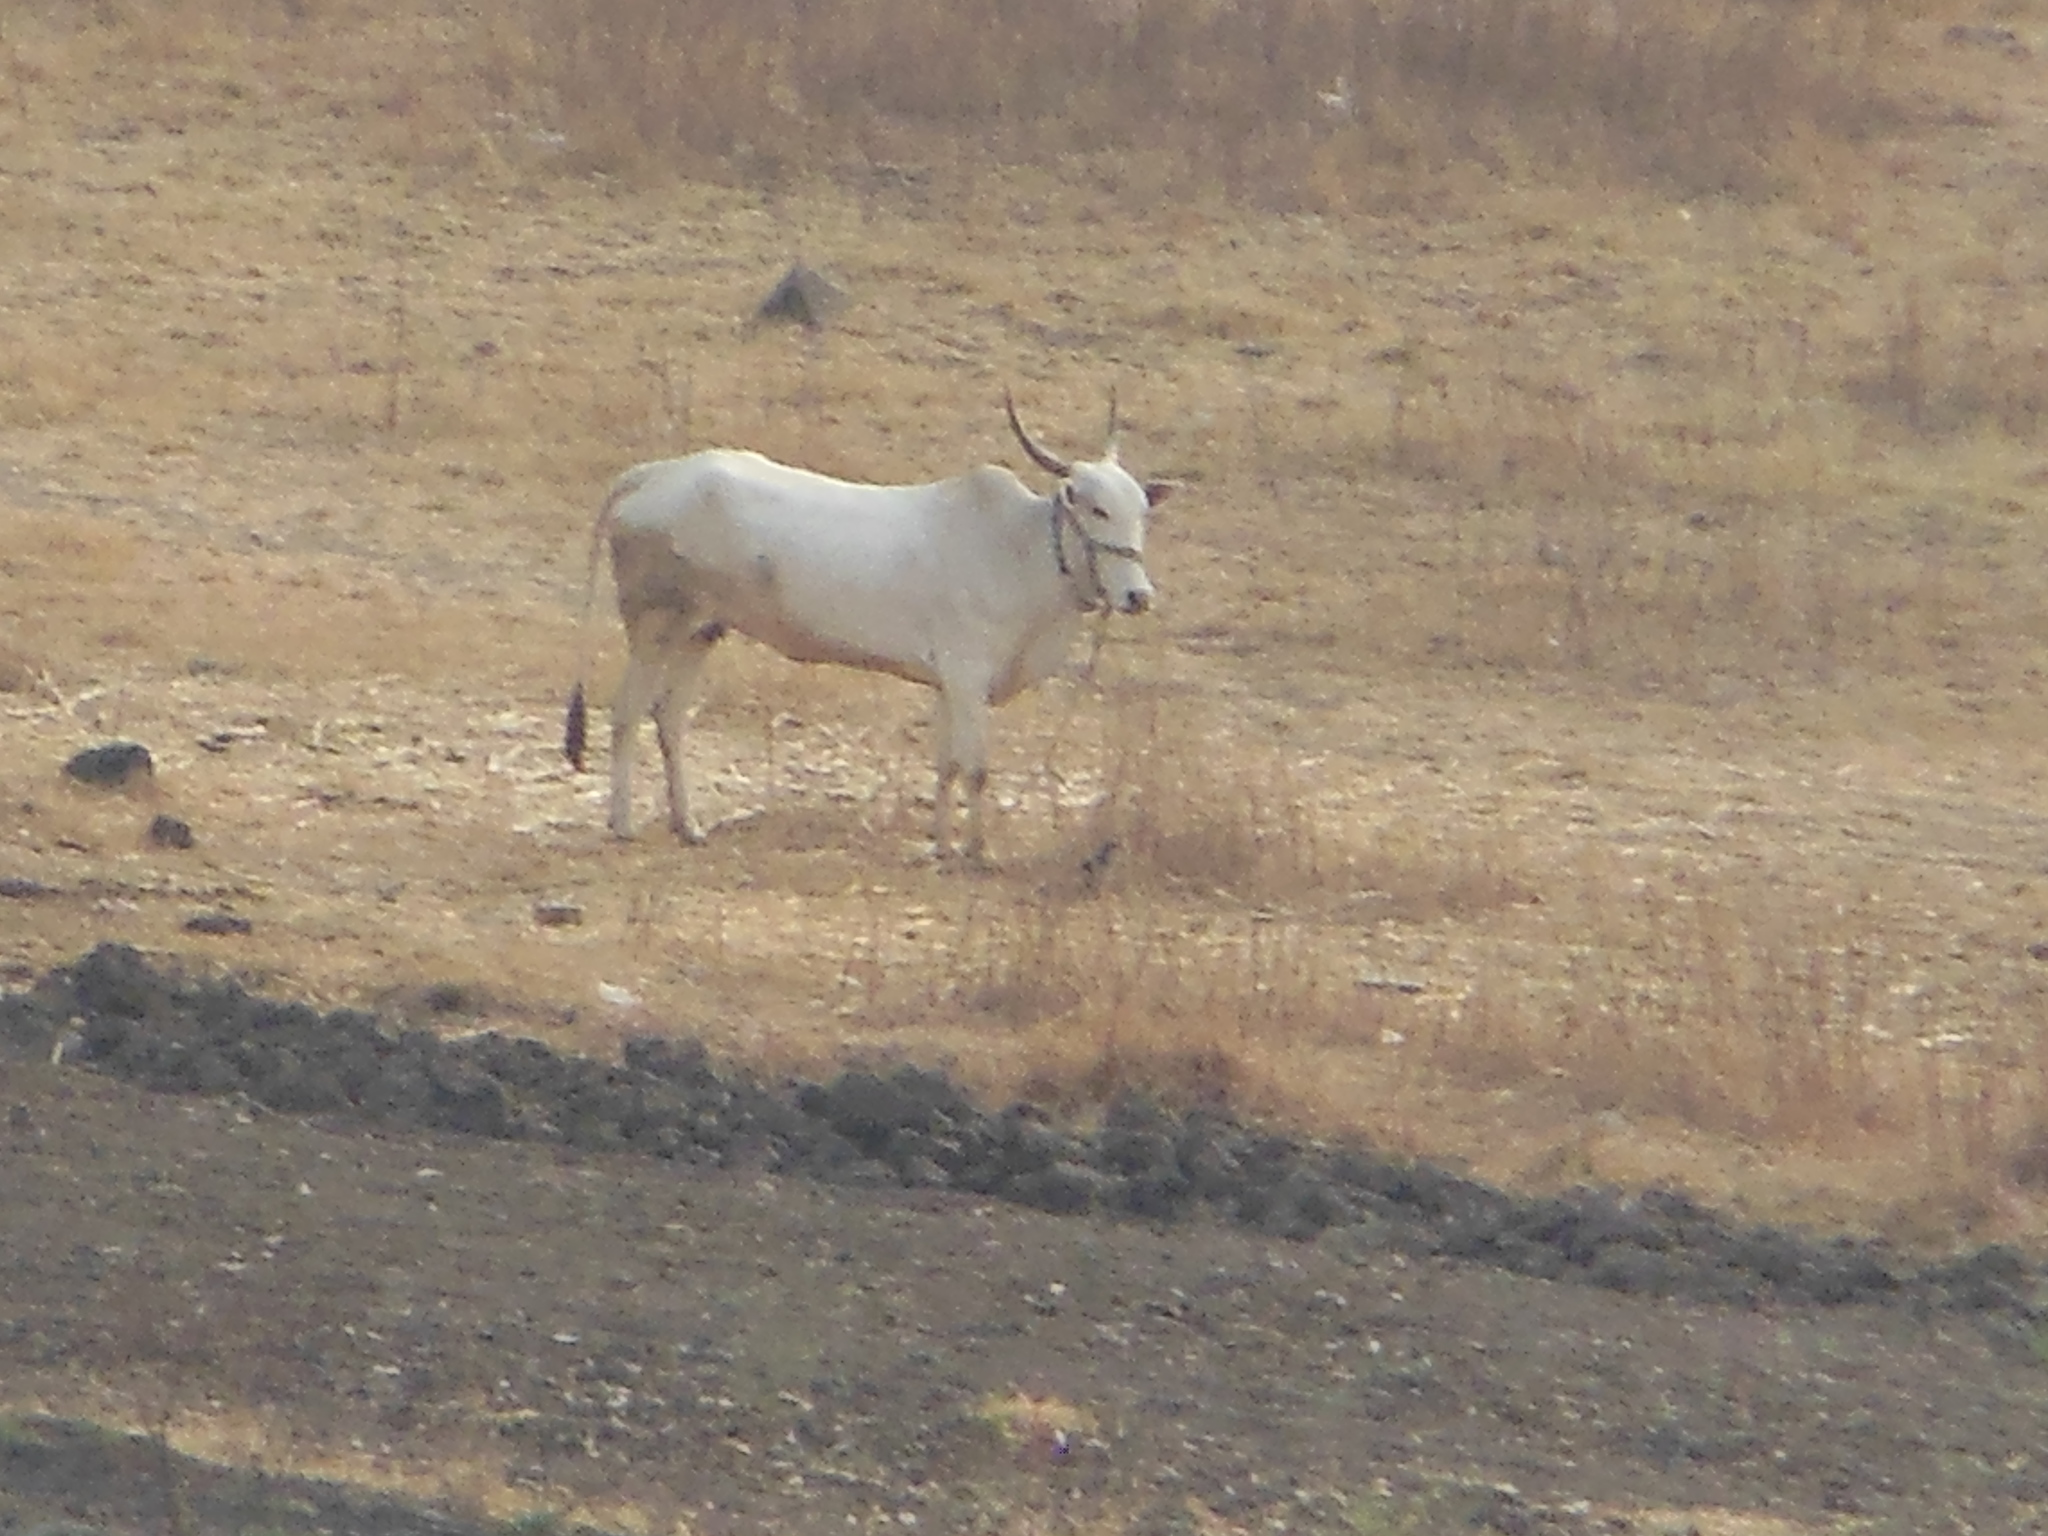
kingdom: Animalia
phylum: Chordata
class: Mammalia
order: Artiodactyla
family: Bovidae
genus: Bos
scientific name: Bos taurus
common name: Domesticated cattle
